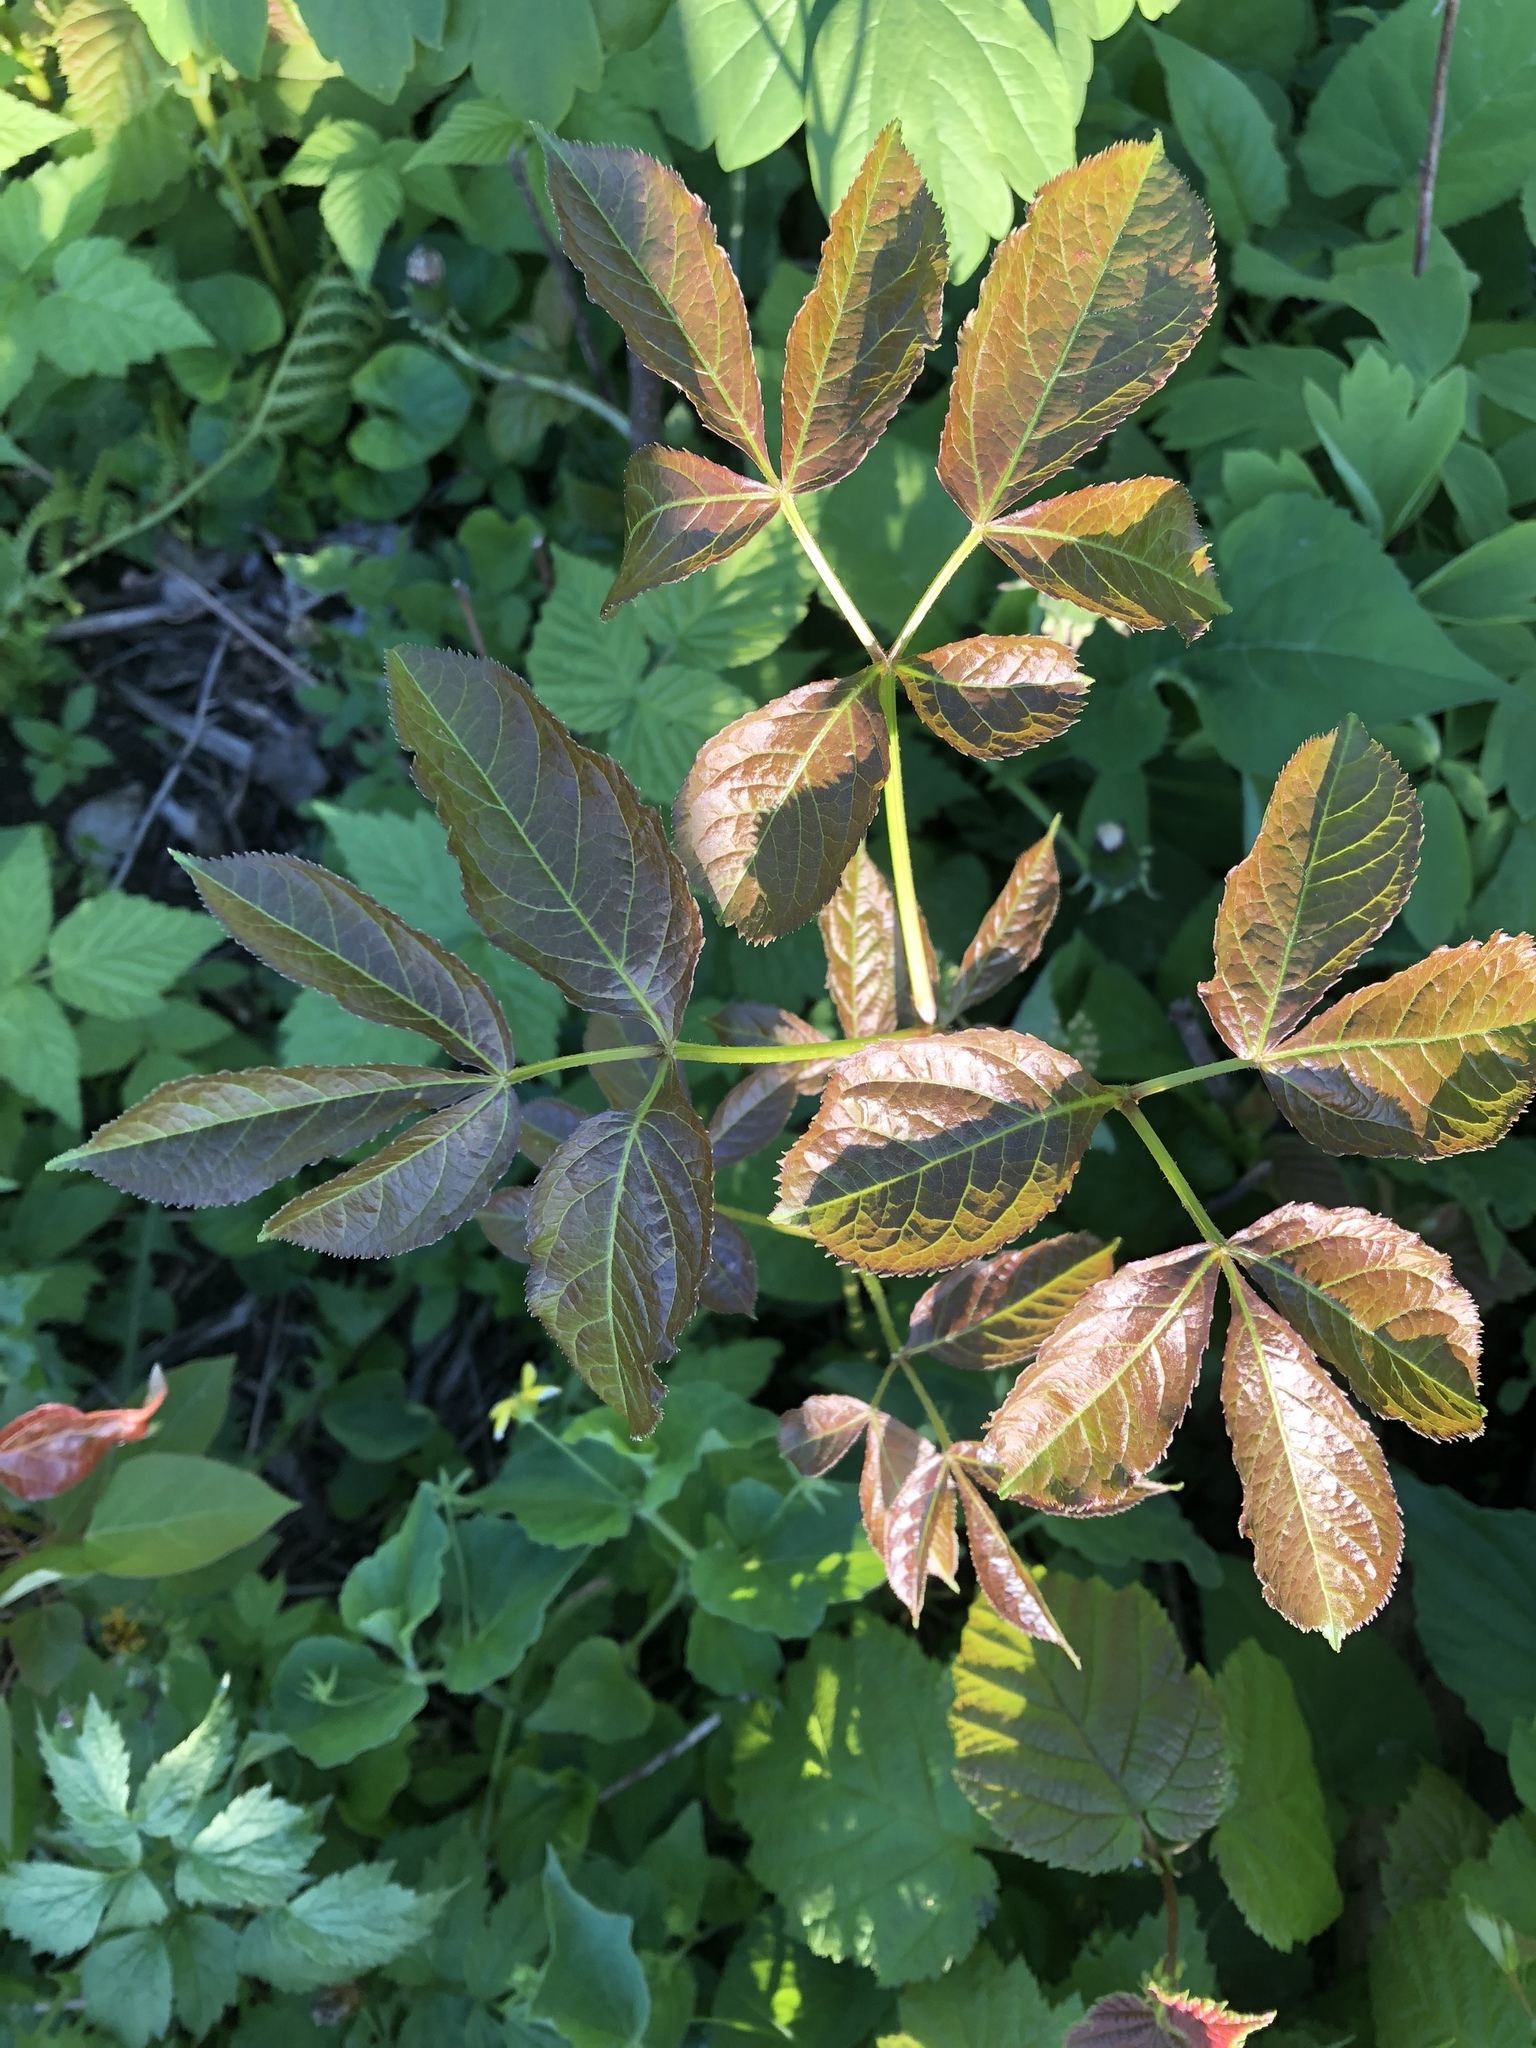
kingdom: Plantae
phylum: Tracheophyta
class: Magnoliopsida
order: Apiales
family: Araliaceae
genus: Aralia
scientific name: Aralia nudicaulis
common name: Wild sarsaparilla
